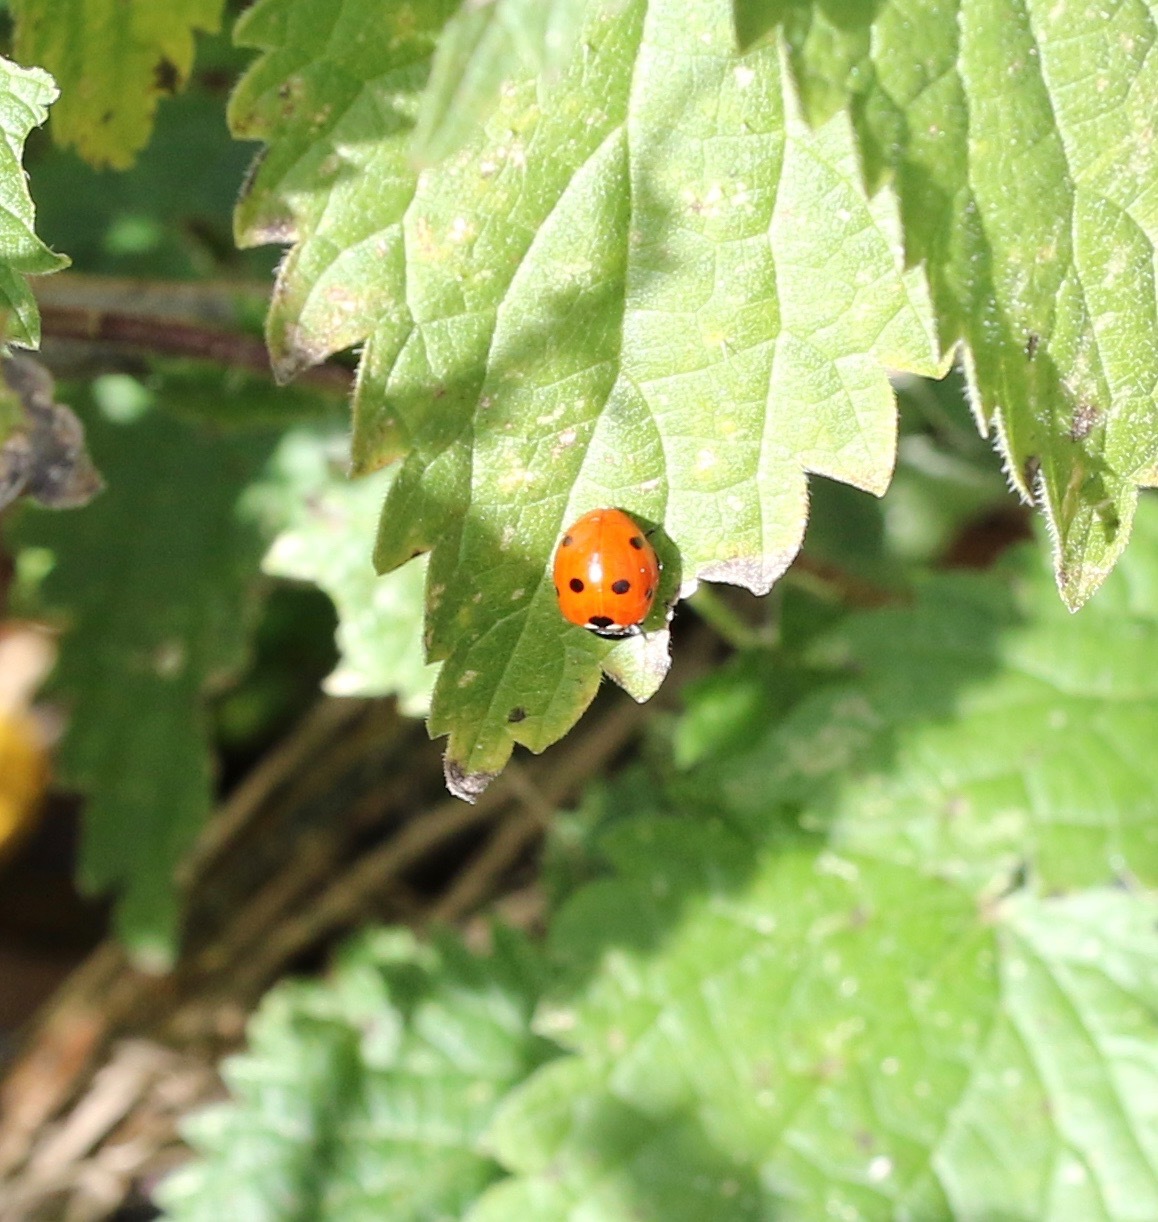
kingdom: Animalia
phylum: Arthropoda
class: Insecta
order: Coleoptera
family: Coccinellidae
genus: Coccinella
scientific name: Coccinella septempunctata
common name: Sevenspotted lady beetle
